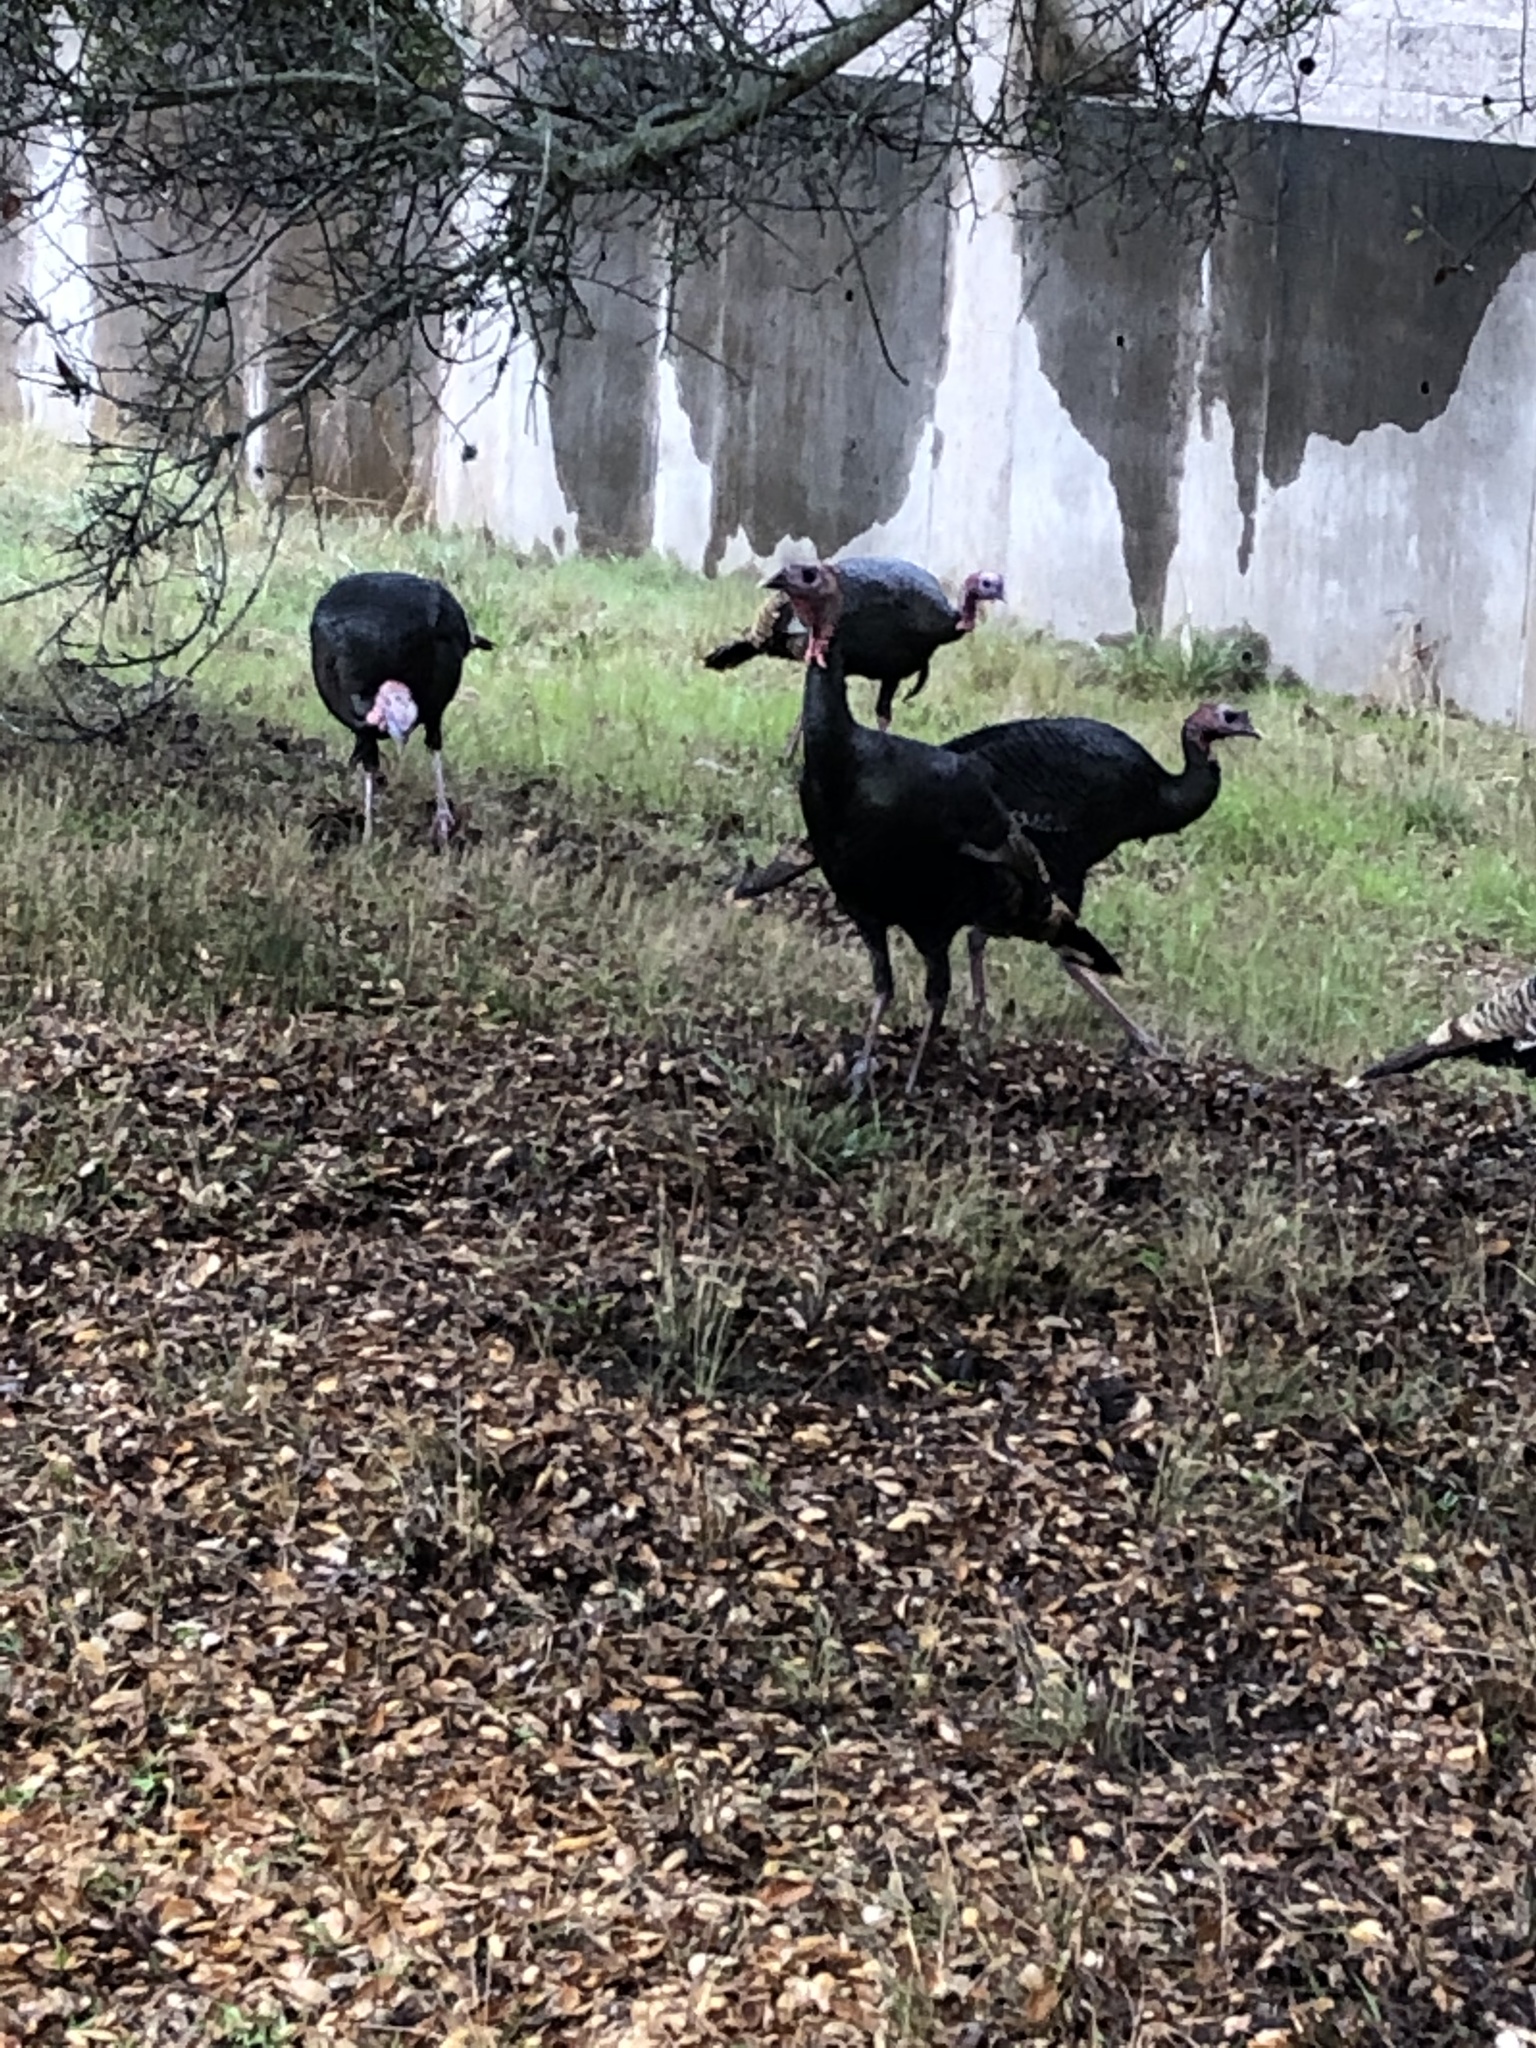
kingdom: Animalia
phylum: Chordata
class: Aves
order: Galliformes
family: Phasianidae
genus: Meleagris
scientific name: Meleagris gallopavo
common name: Wild turkey
